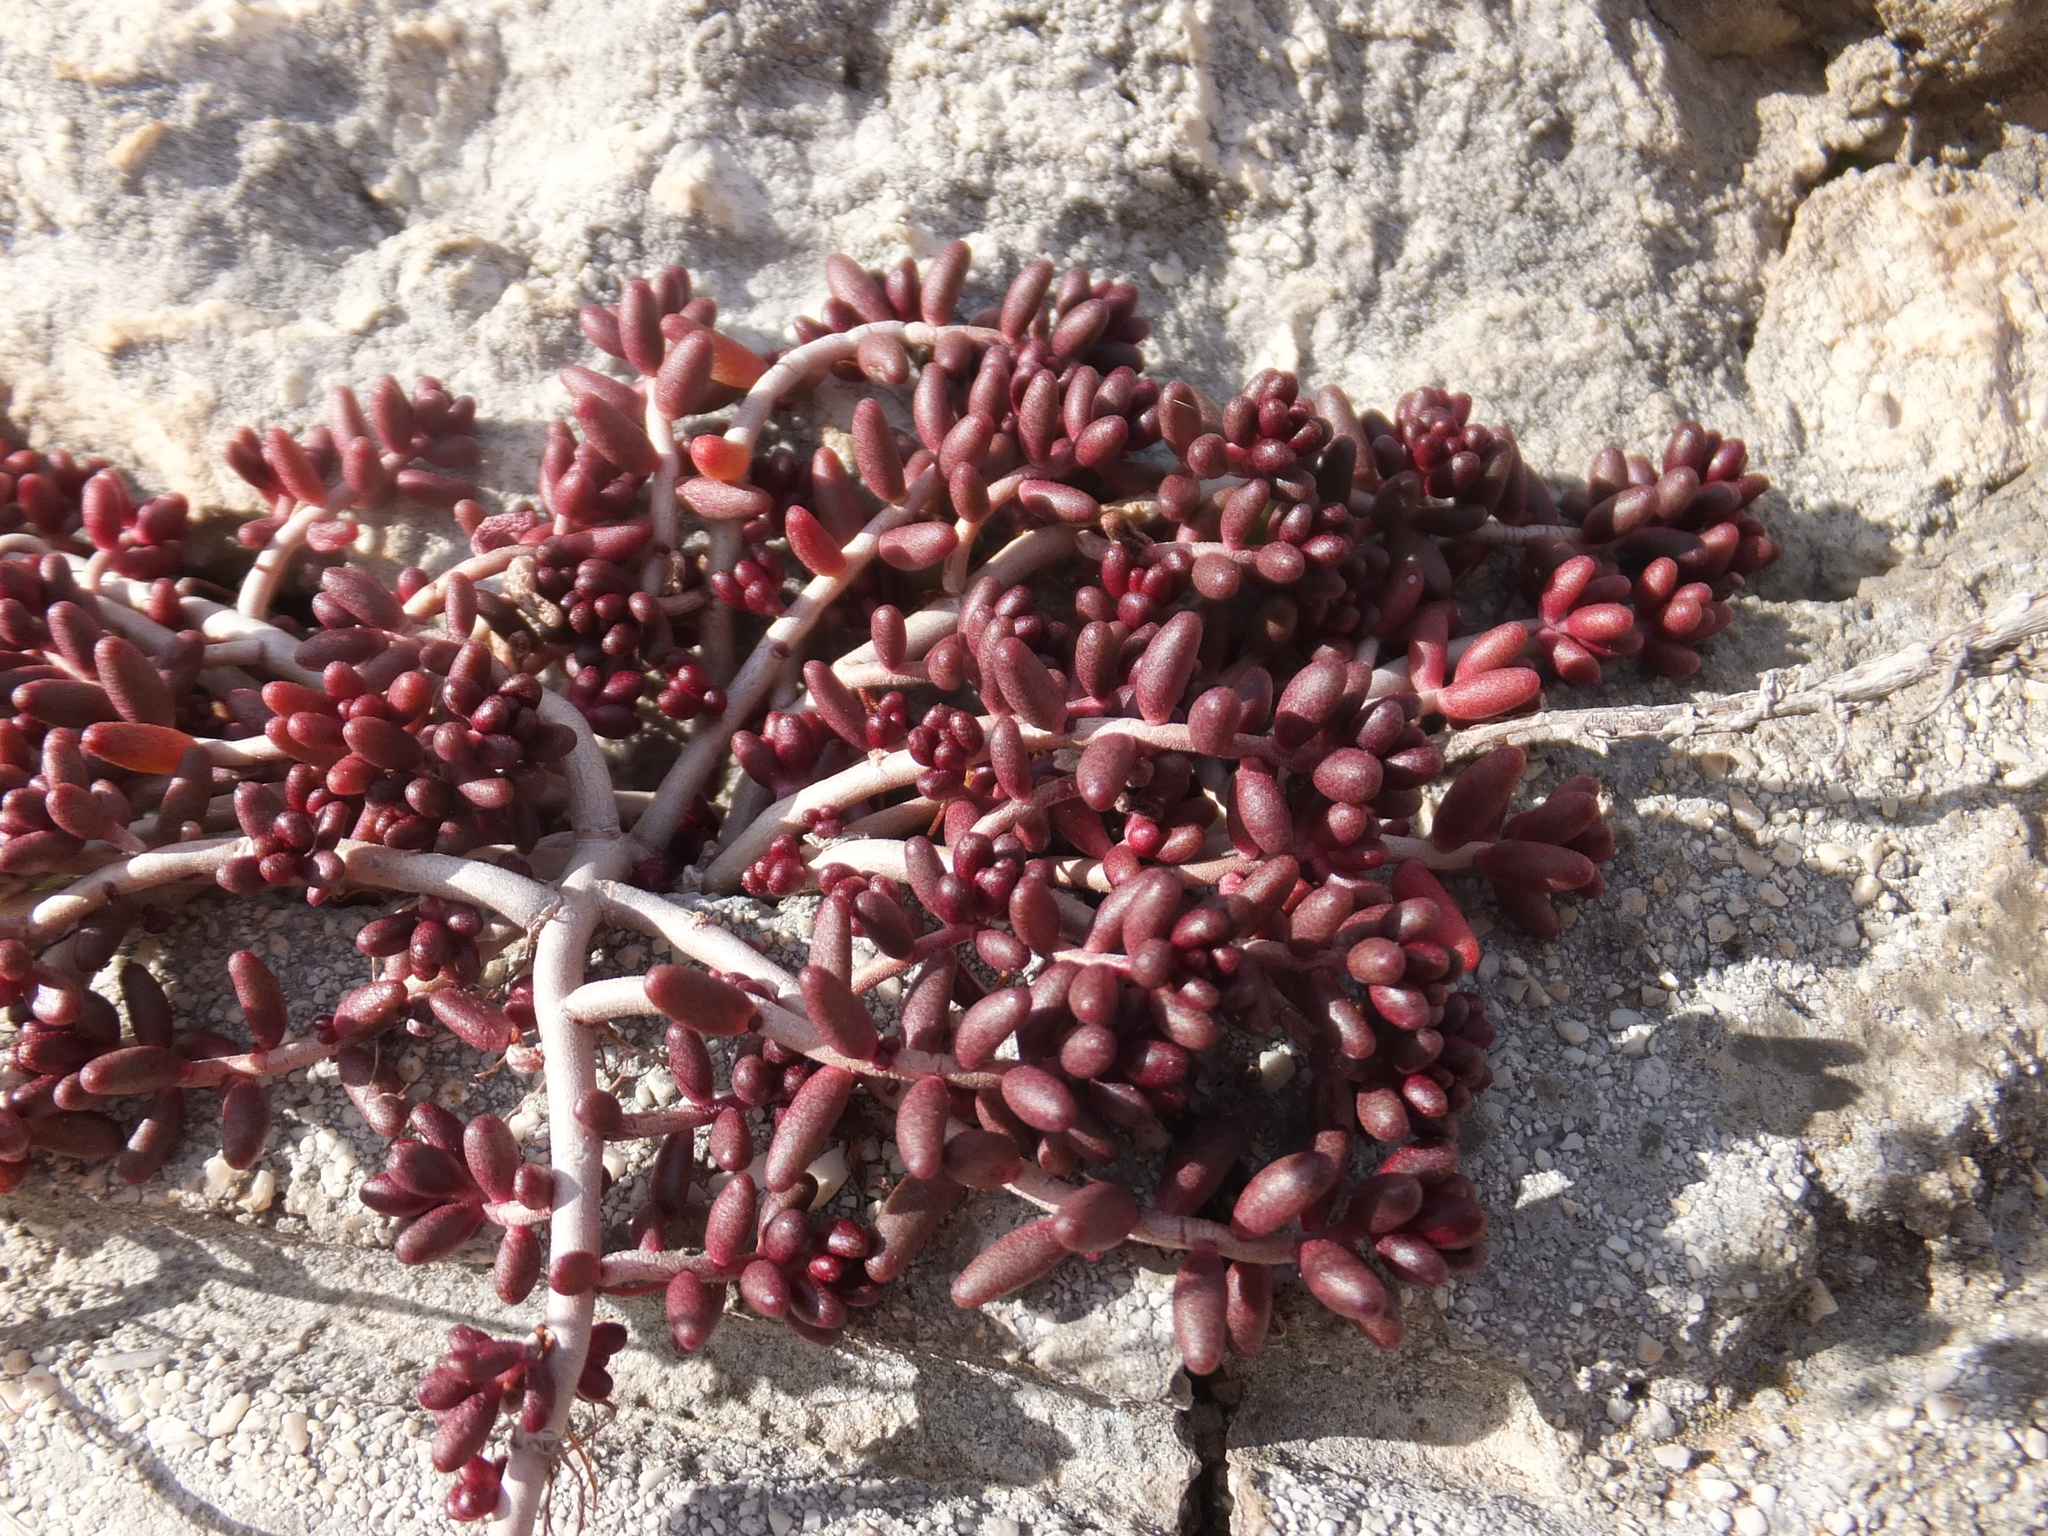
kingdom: Plantae
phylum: Tracheophyta
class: Magnoliopsida
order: Saxifragales
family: Crassulaceae
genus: Sedum
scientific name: Sedum album
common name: White stonecrop
